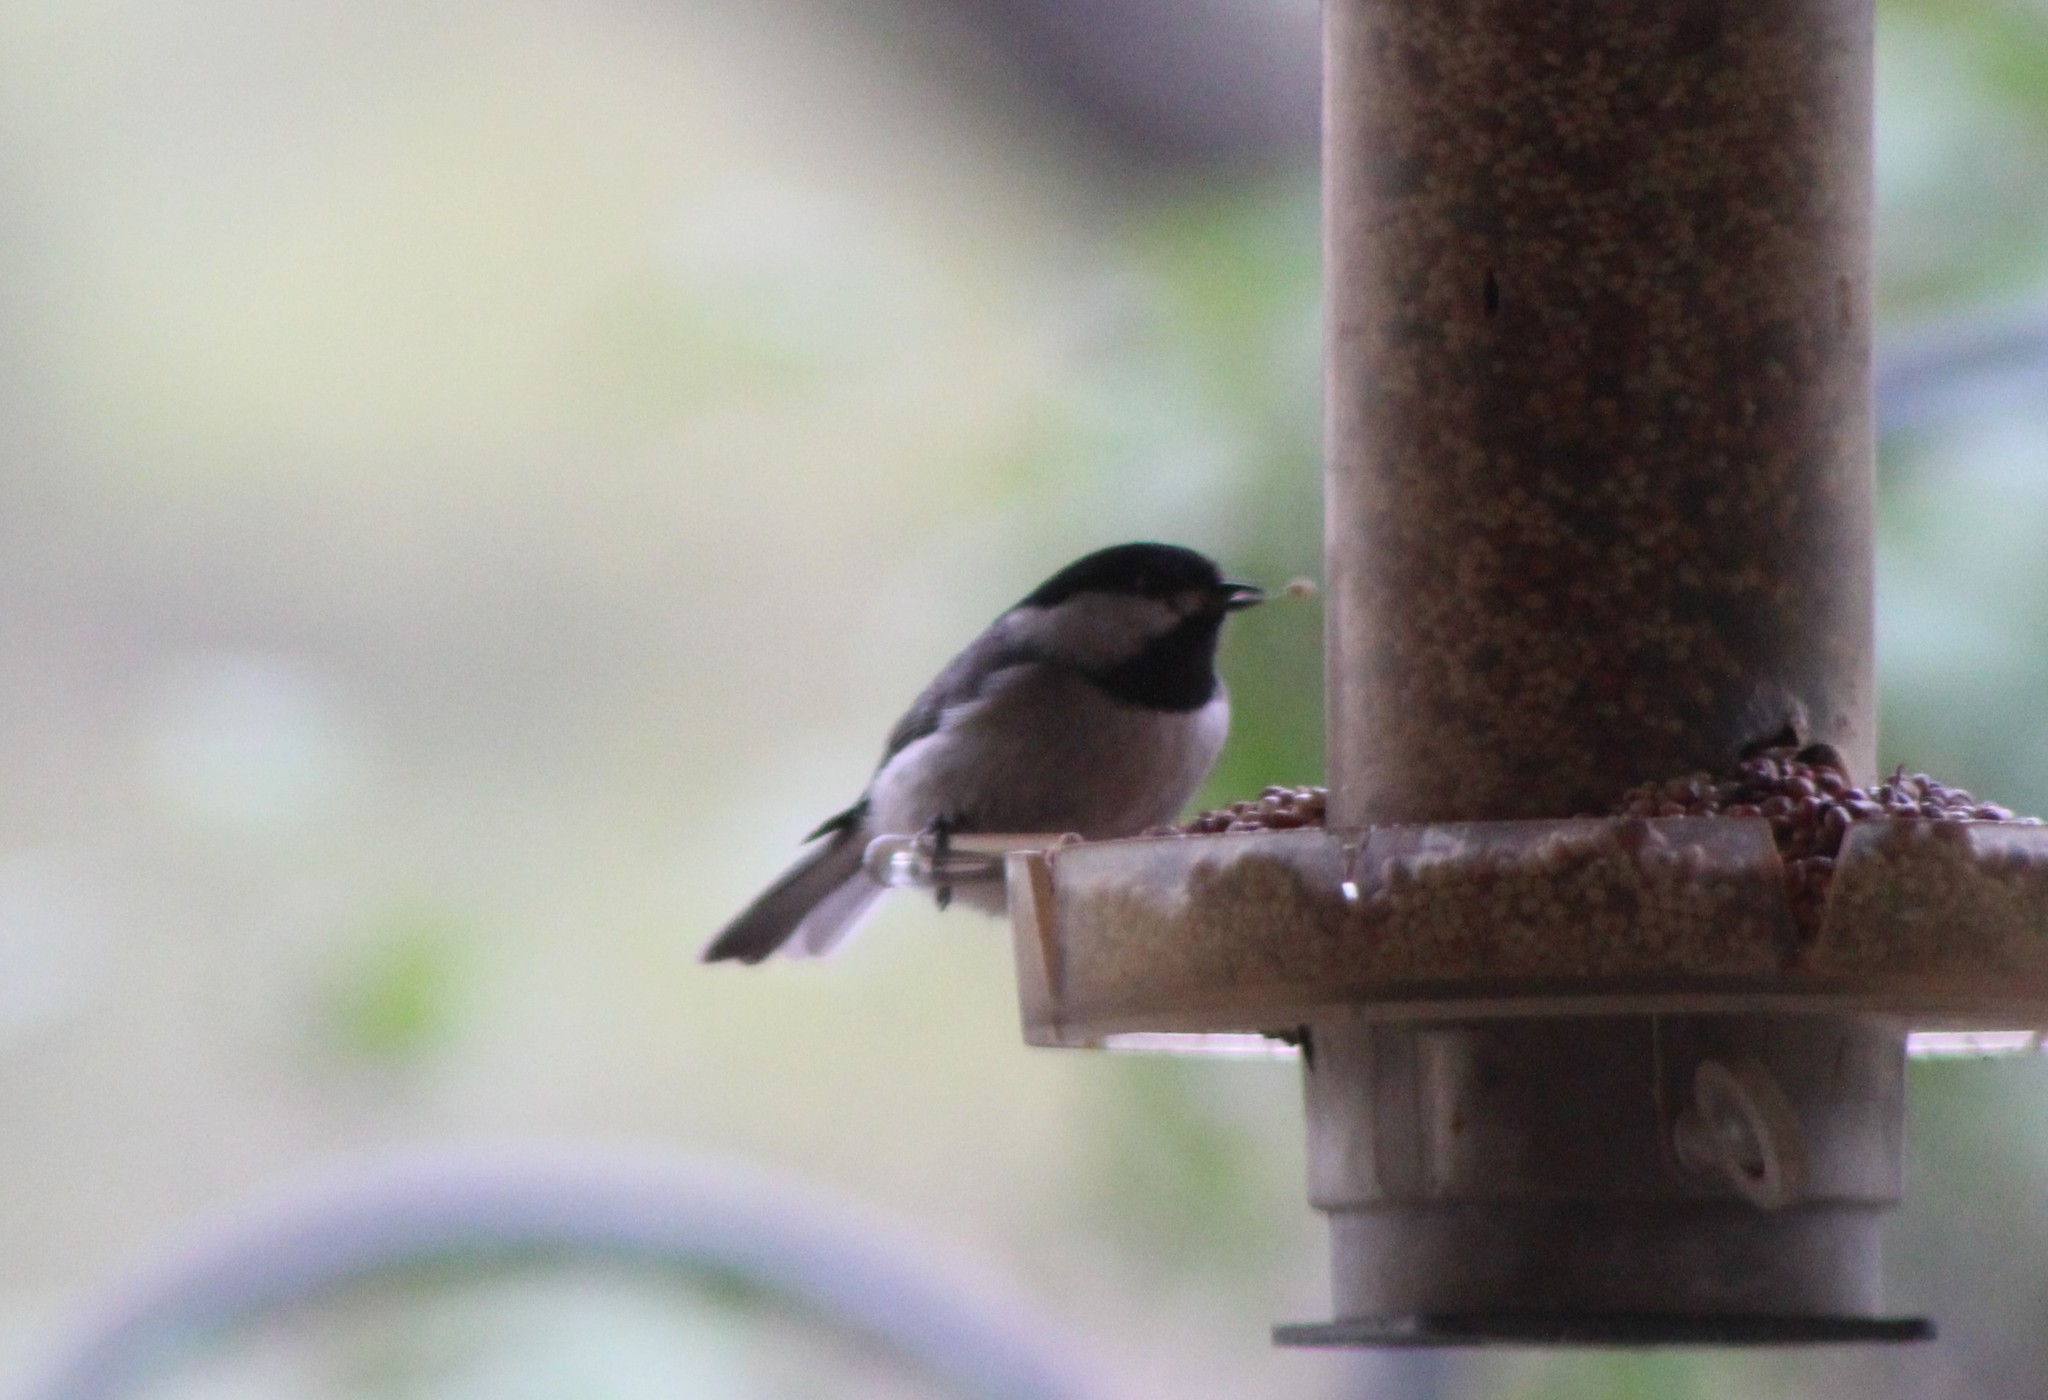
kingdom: Animalia
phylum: Chordata
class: Aves
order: Passeriformes
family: Paridae
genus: Poecile
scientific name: Poecile carolinensis
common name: Carolina chickadee
